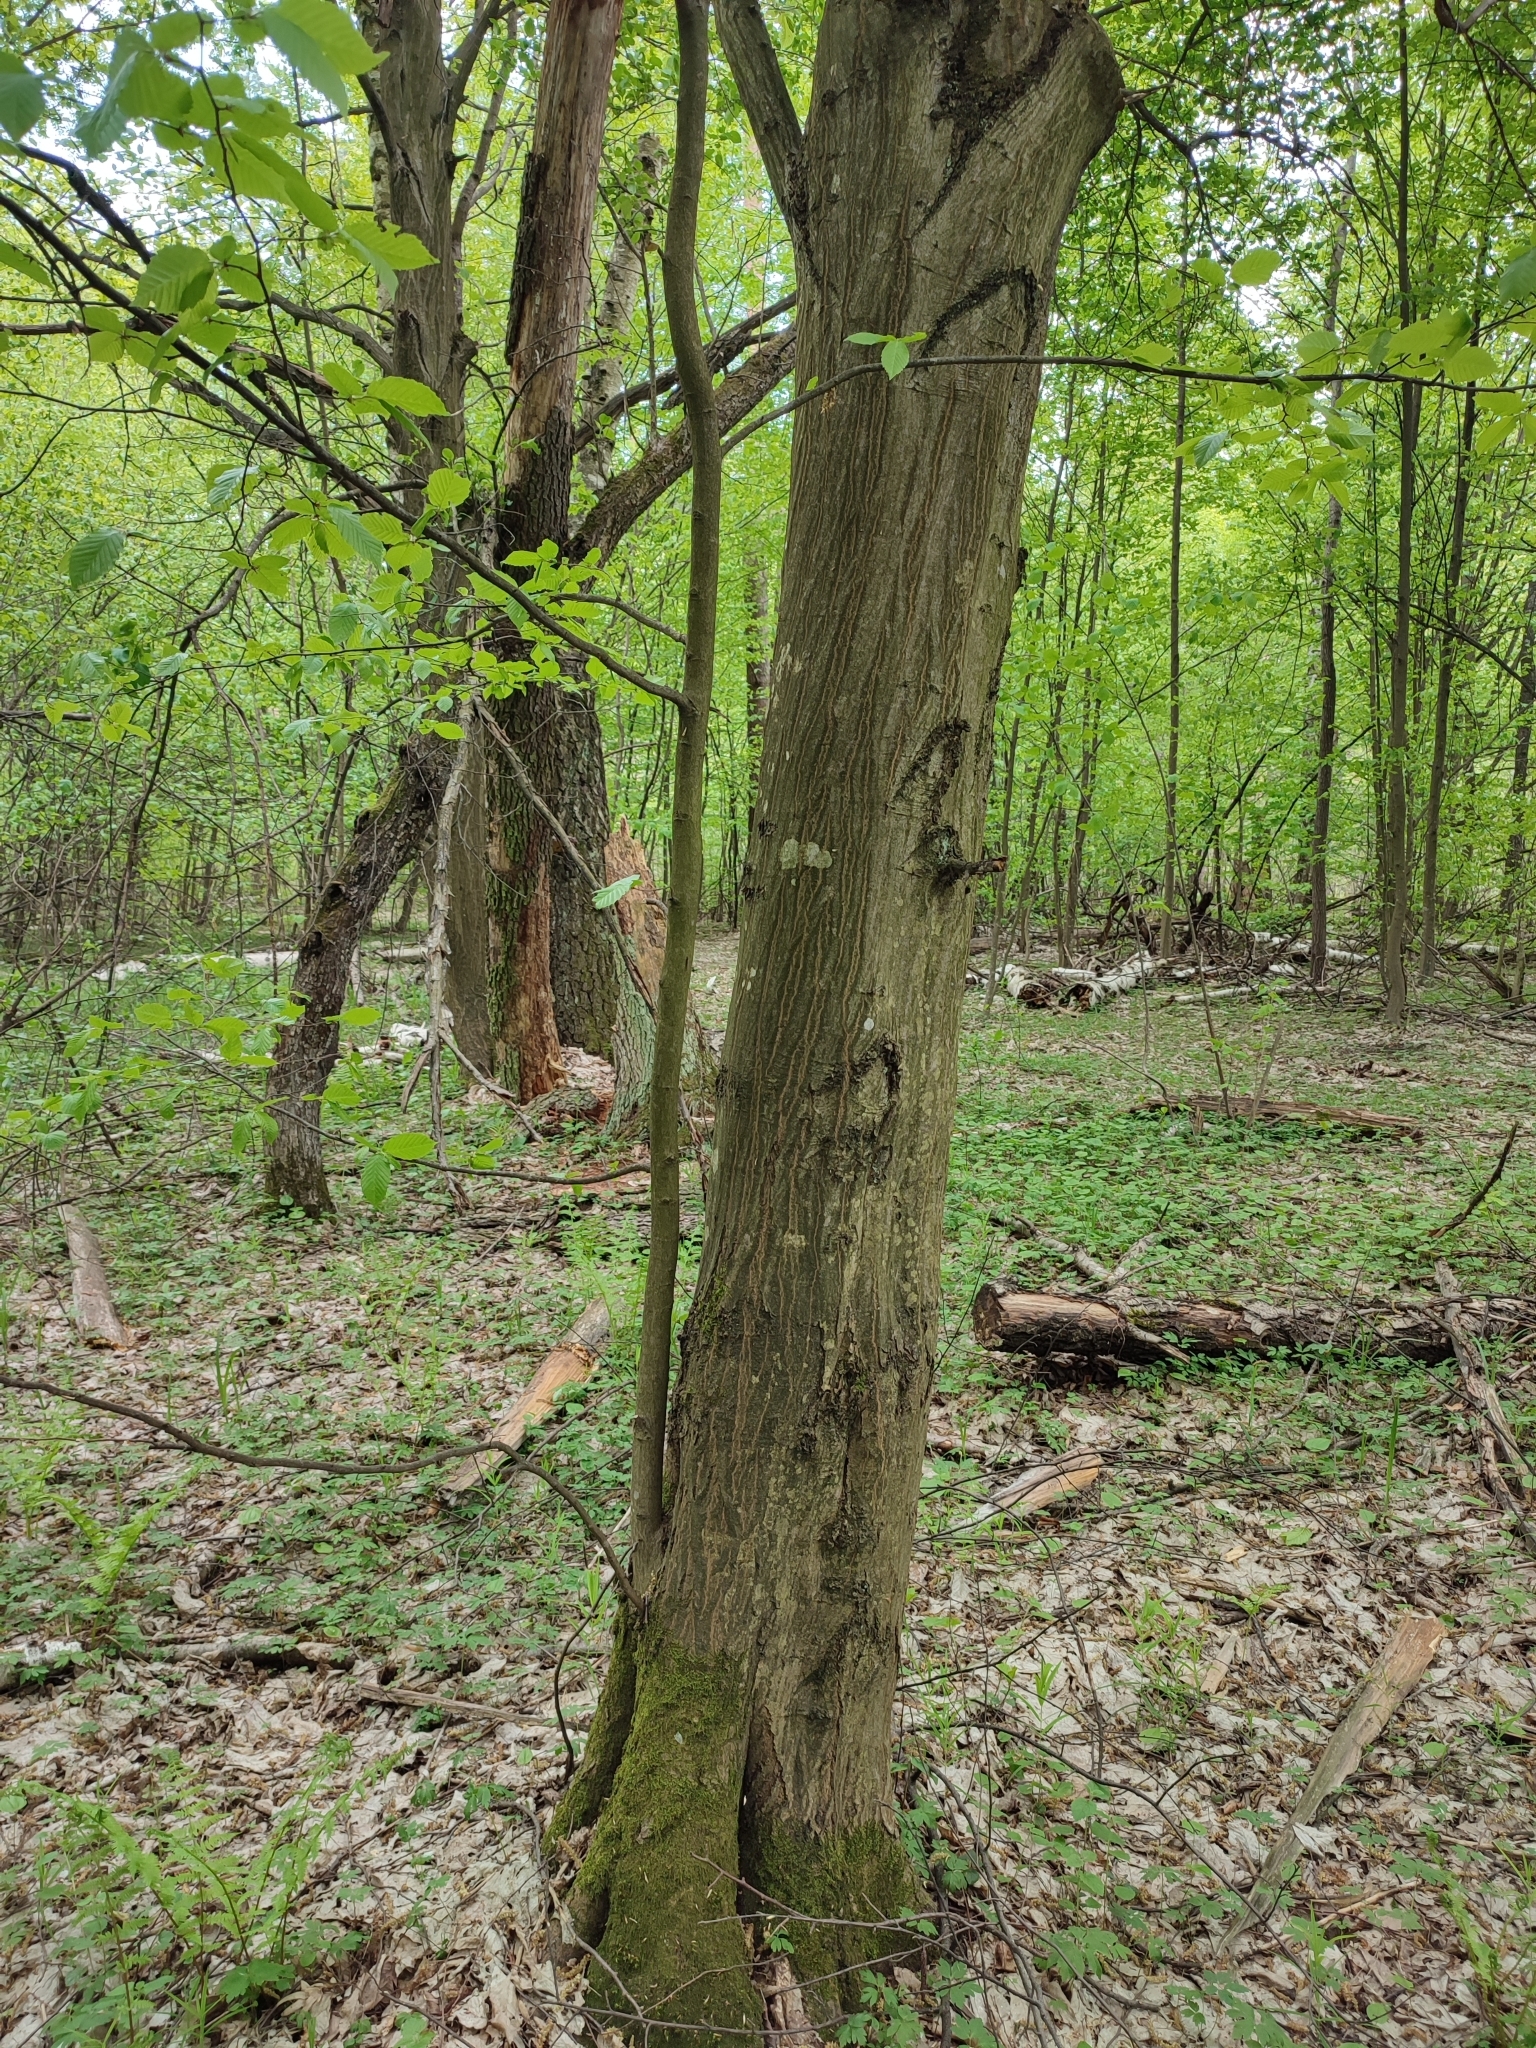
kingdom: Plantae
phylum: Tracheophyta
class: Magnoliopsida
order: Fagales
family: Betulaceae
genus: Carpinus
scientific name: Carpinus betulus
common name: Hornbeam
